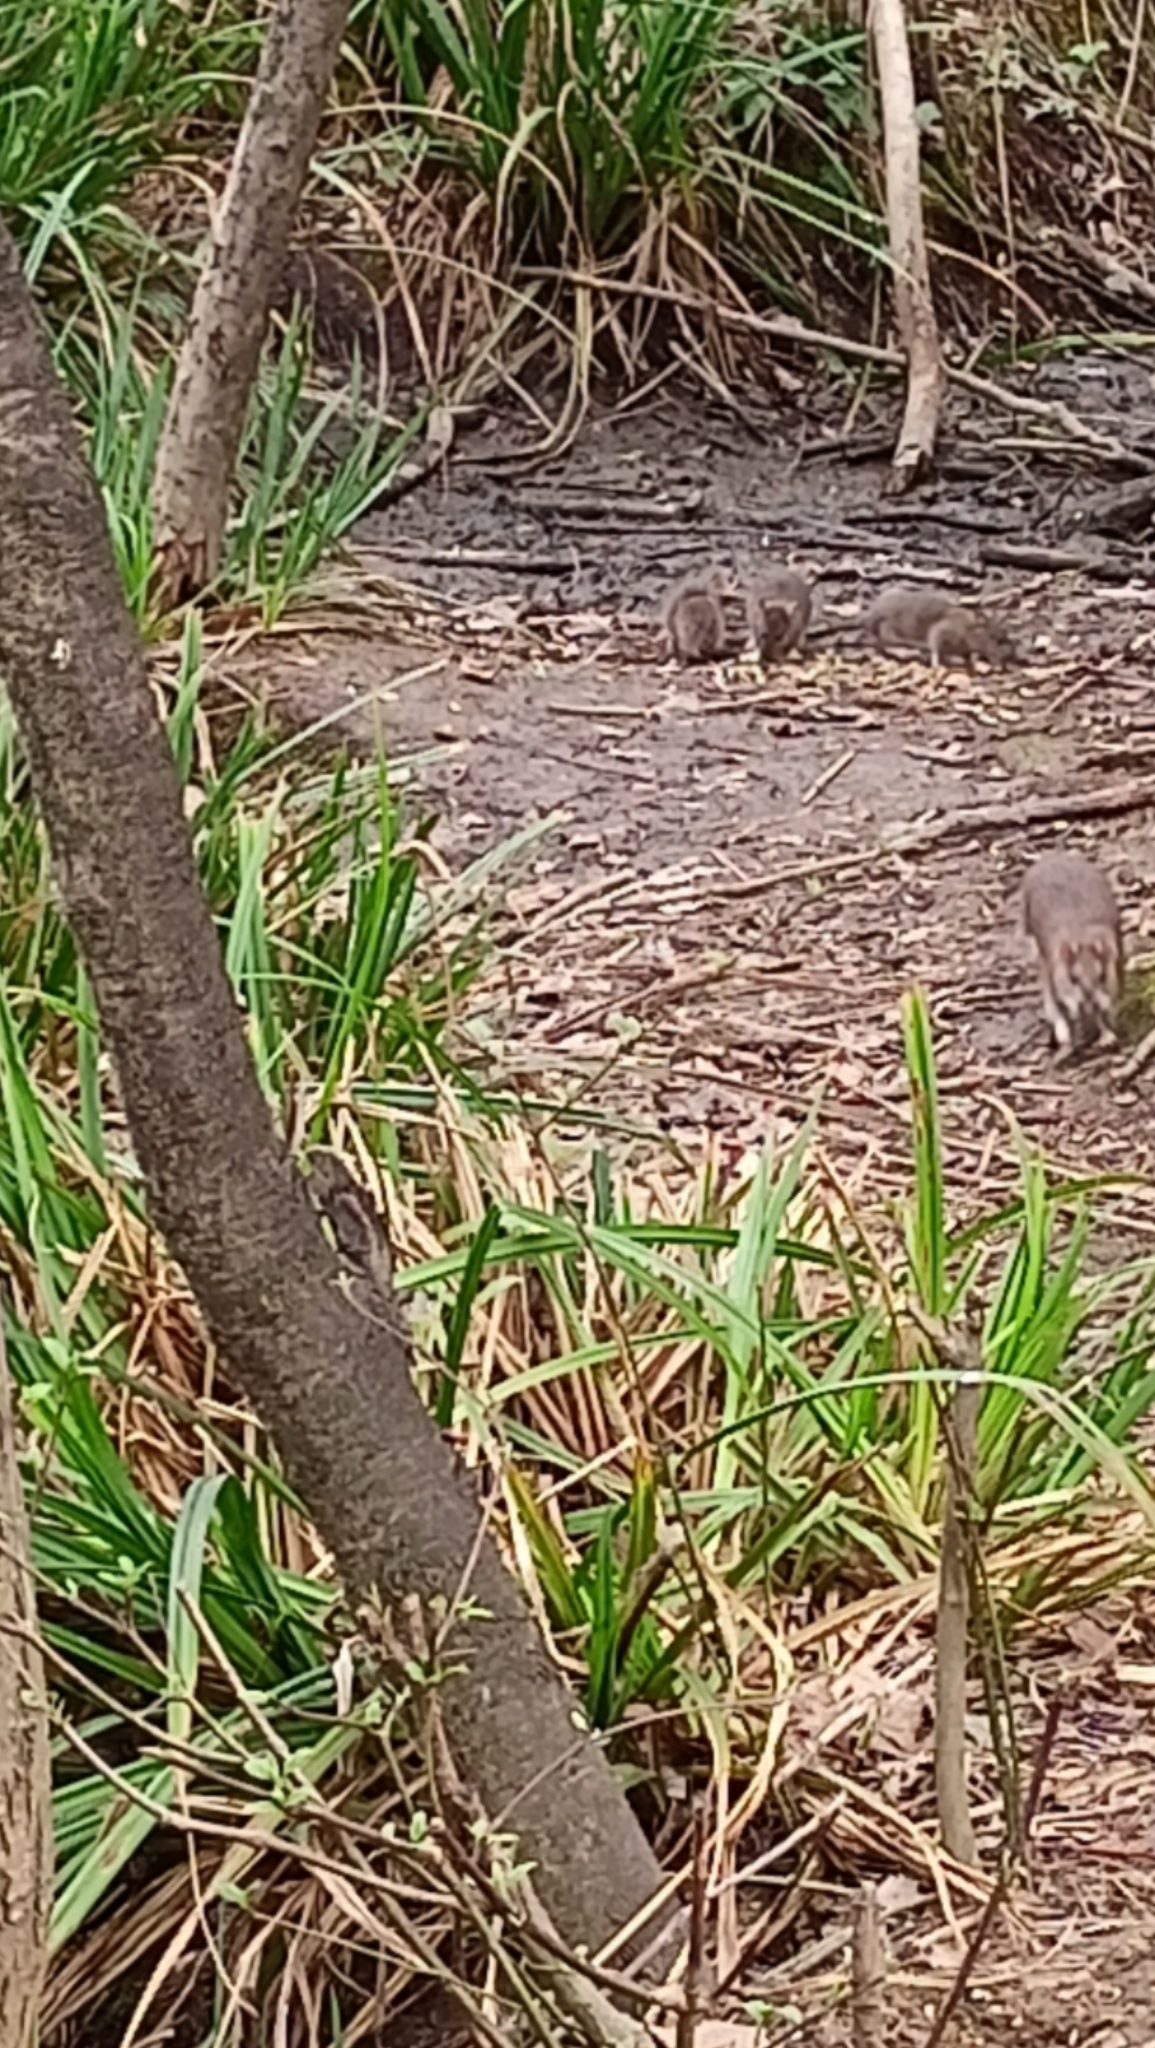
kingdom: Animalia
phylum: Chordata
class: Mammalia
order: Rodentia
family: Muridae
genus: Rattus
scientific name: Rattus norvegicus
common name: Brown rat
